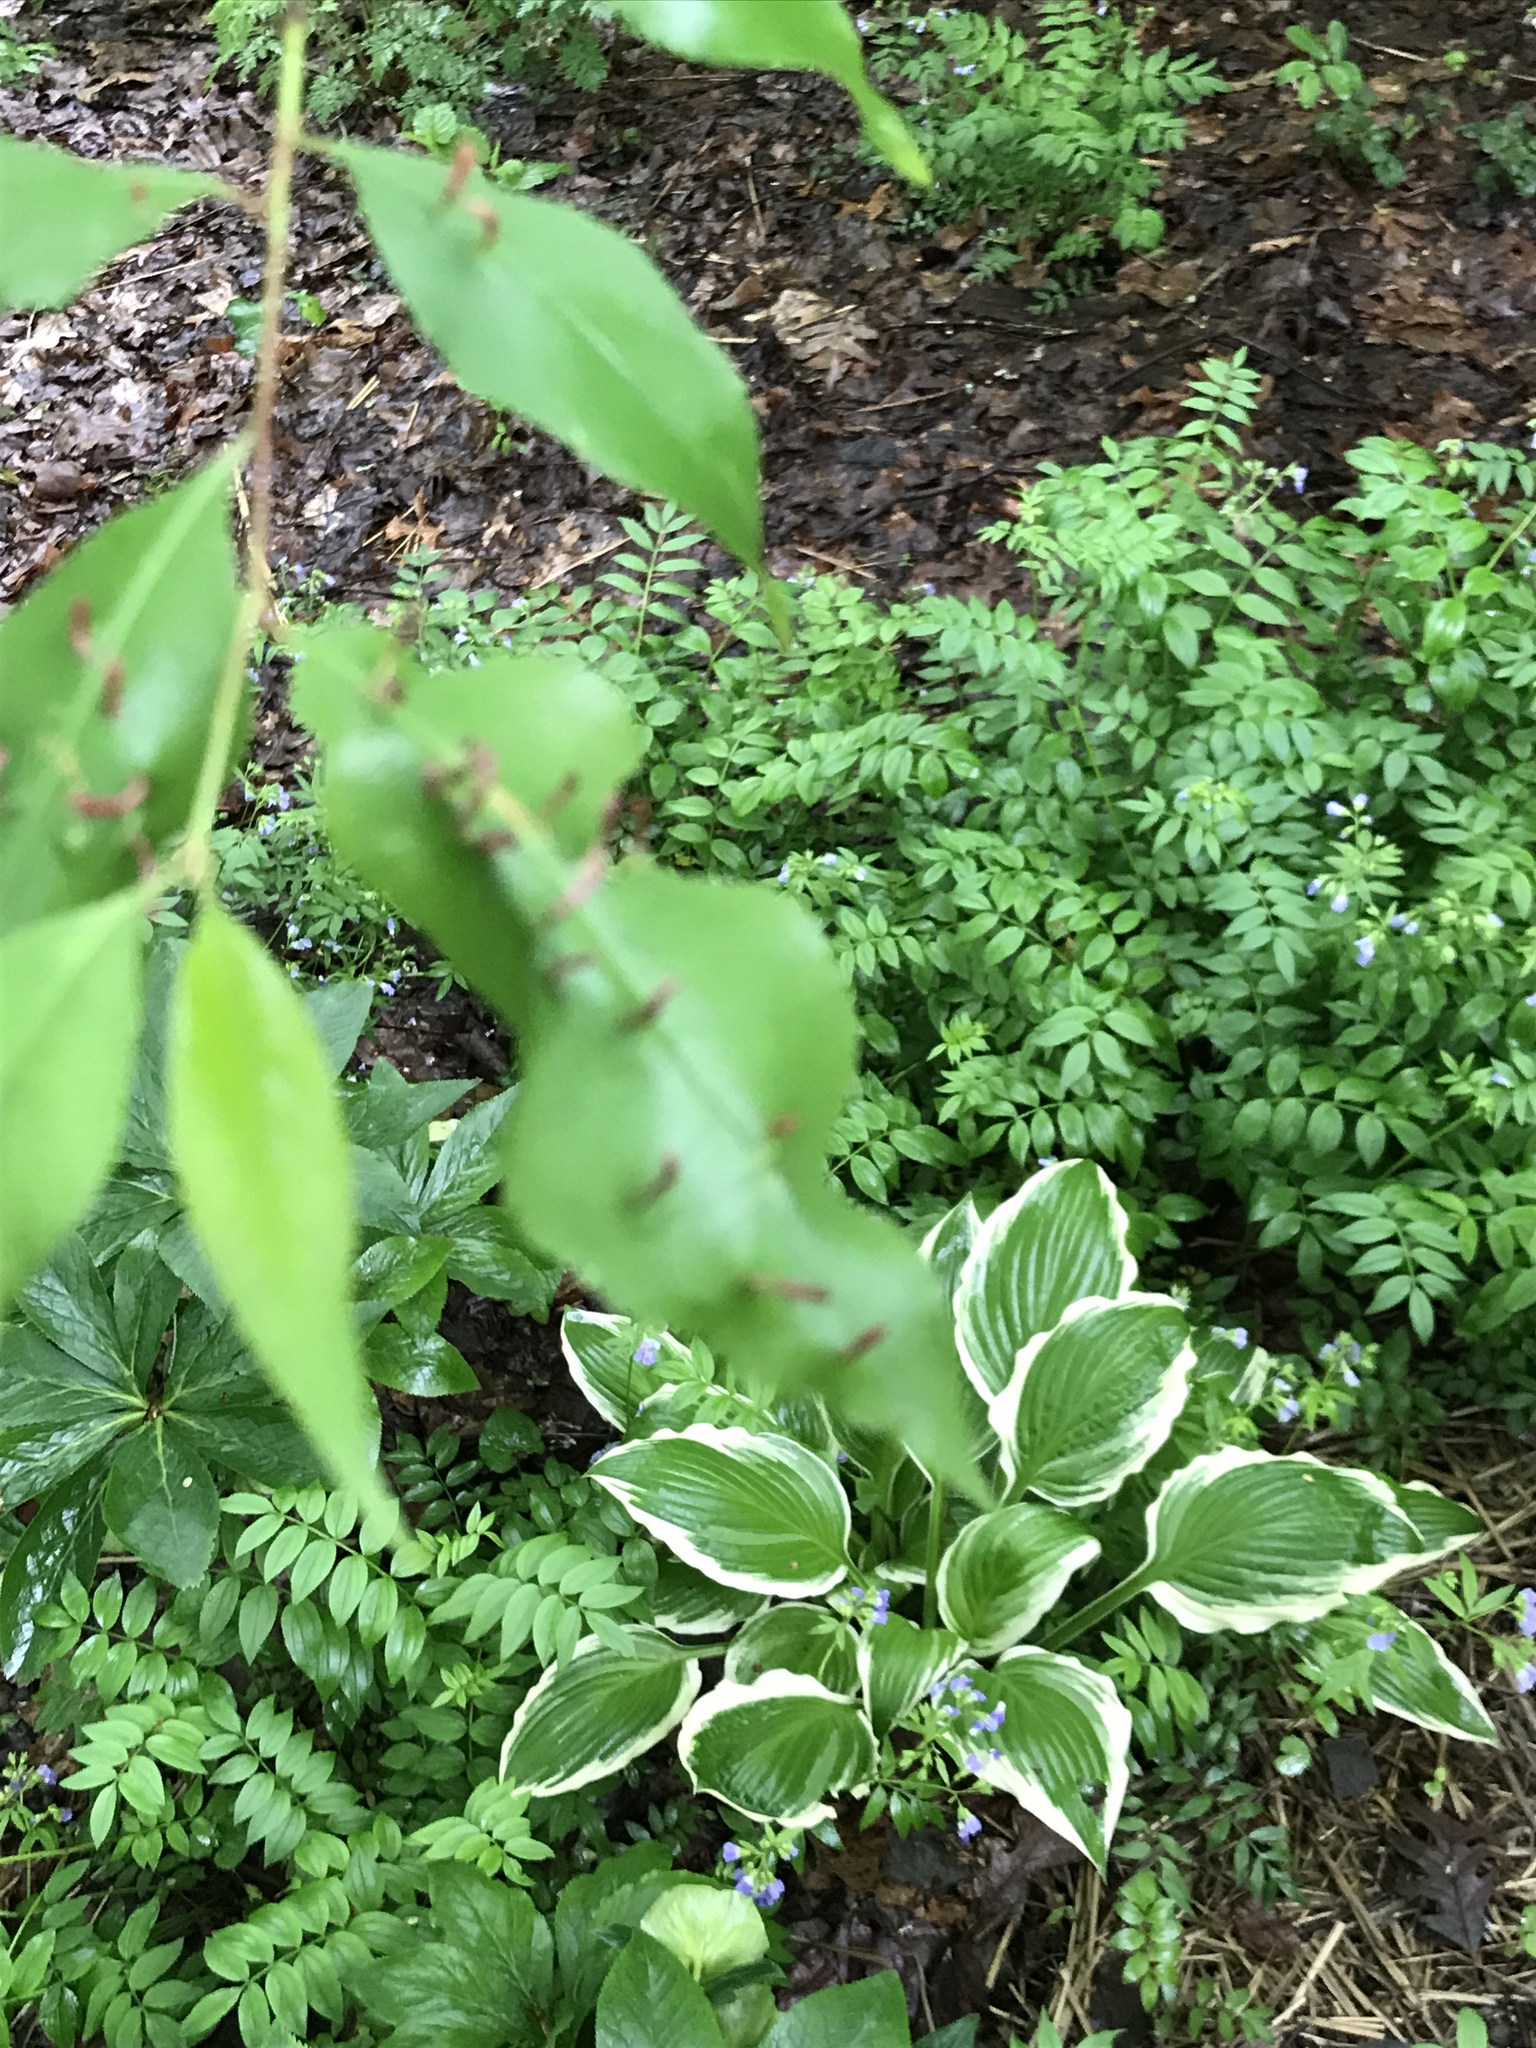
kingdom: Animalia
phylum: Arthropoda
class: Arachnida
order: Trombidiformes
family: Eriophyidae
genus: Eriophyes
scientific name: Eriophyes
